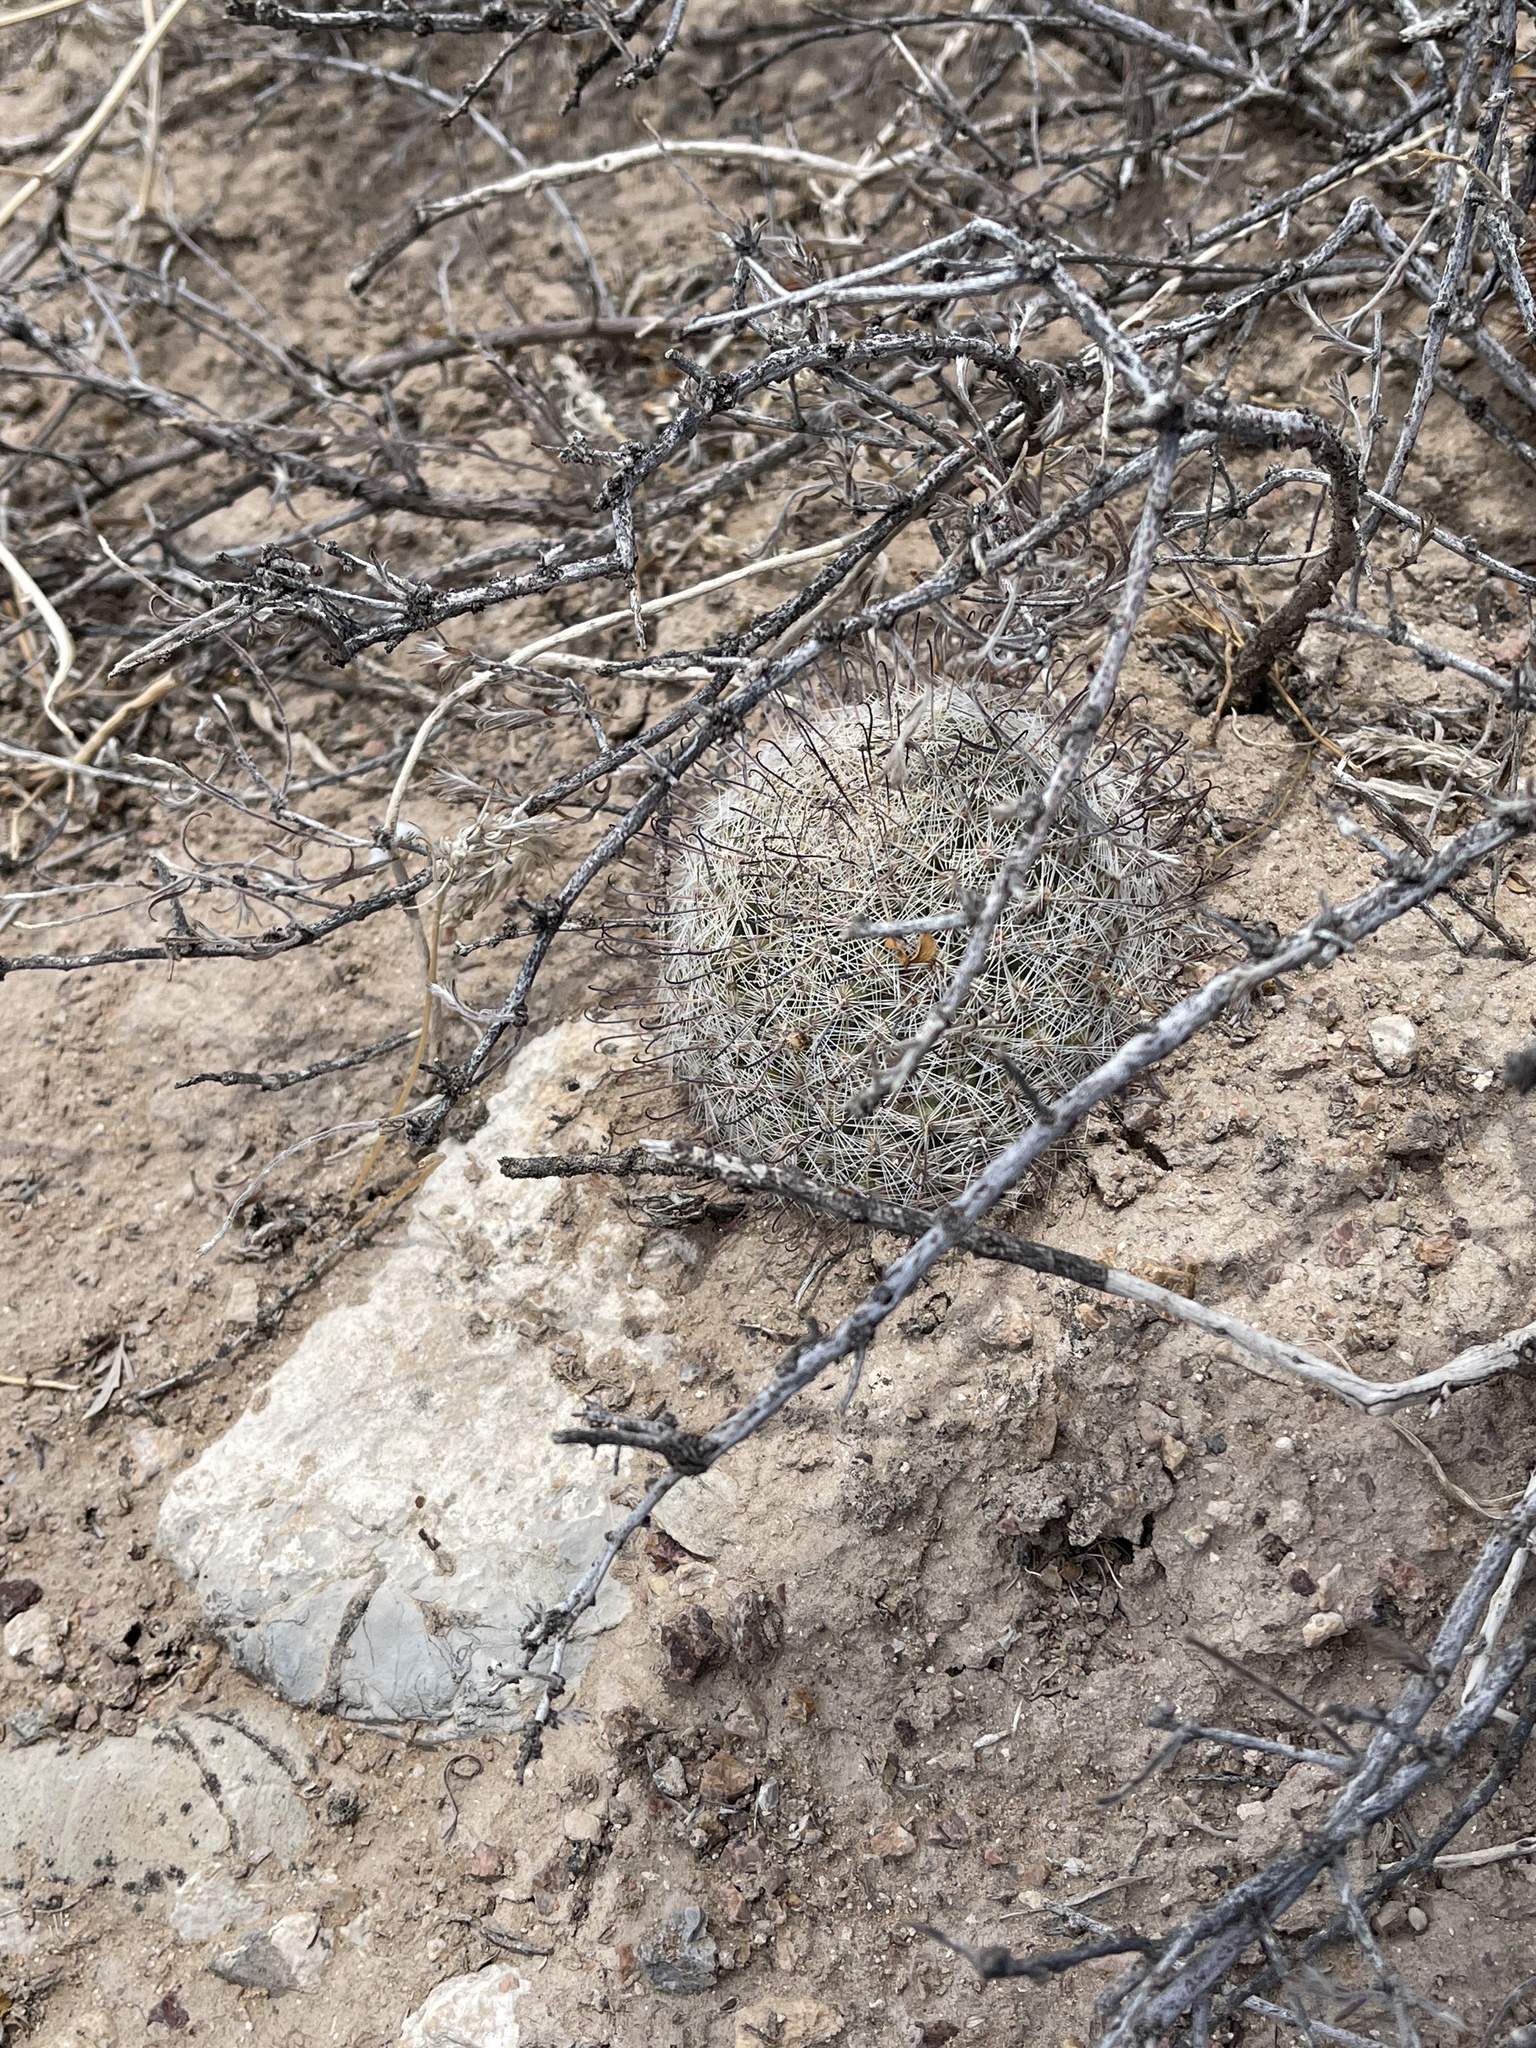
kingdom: Plantae
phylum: Tracheophyta
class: Magnoliopsida
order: Caryophyllales
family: Cactaceae
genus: Cochemiea
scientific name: Cochemiea grahamii
